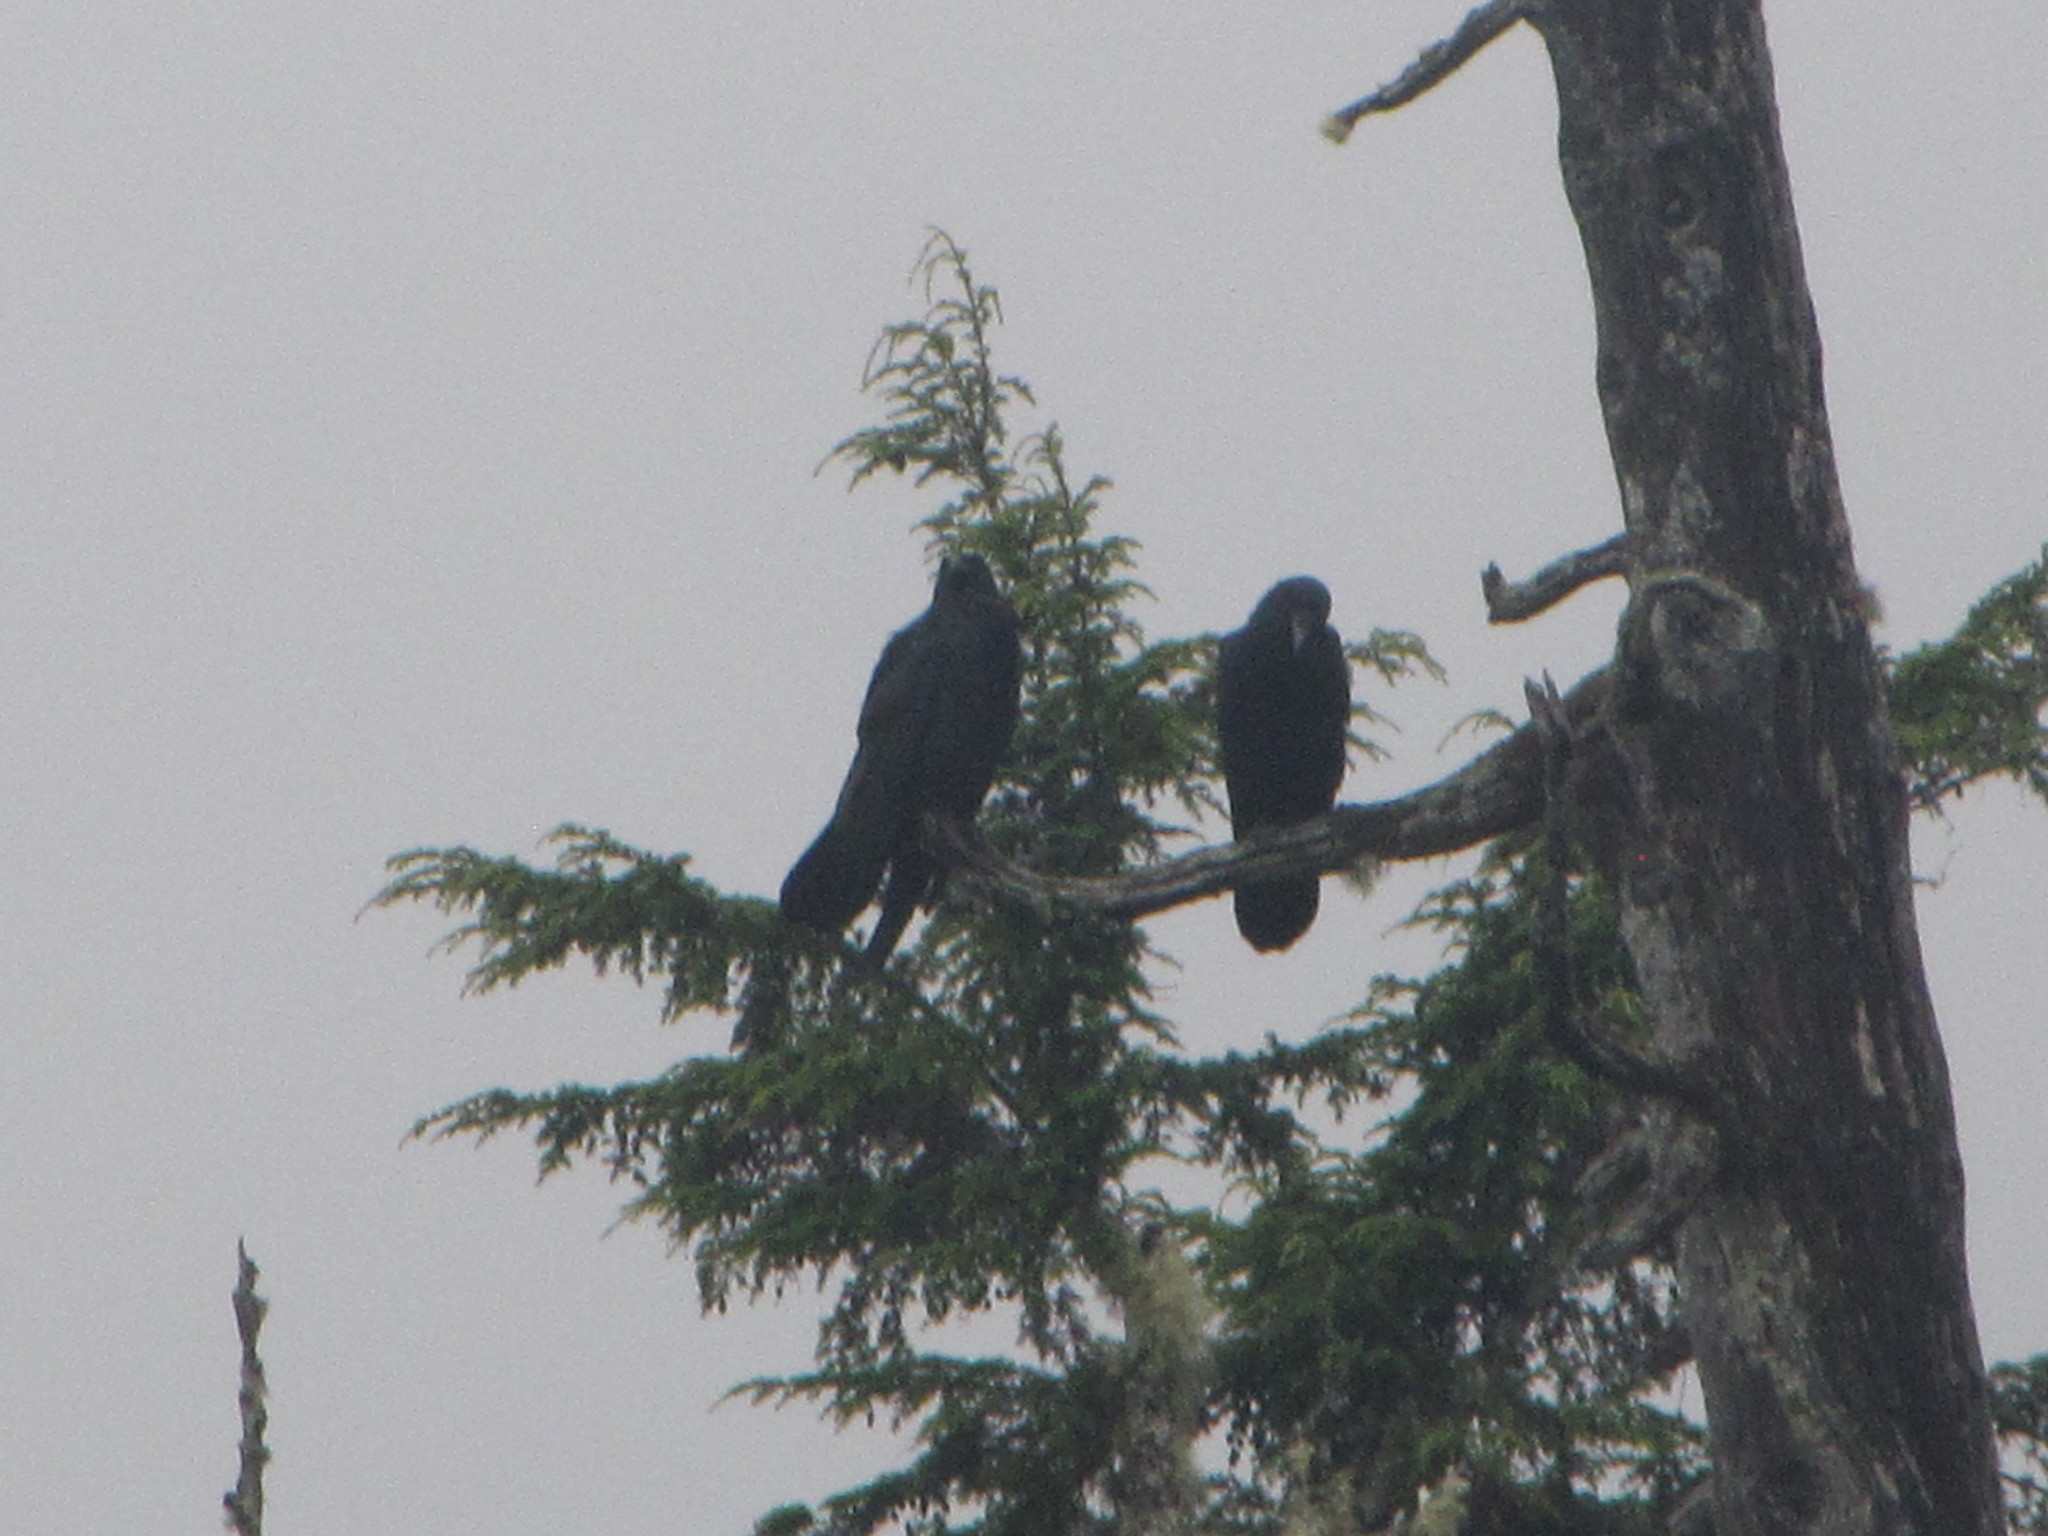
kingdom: Animalia
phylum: Chordata
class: Aves
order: Passeriformes
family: Corvidae
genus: Corvus
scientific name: Corvus corax
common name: Common raven
